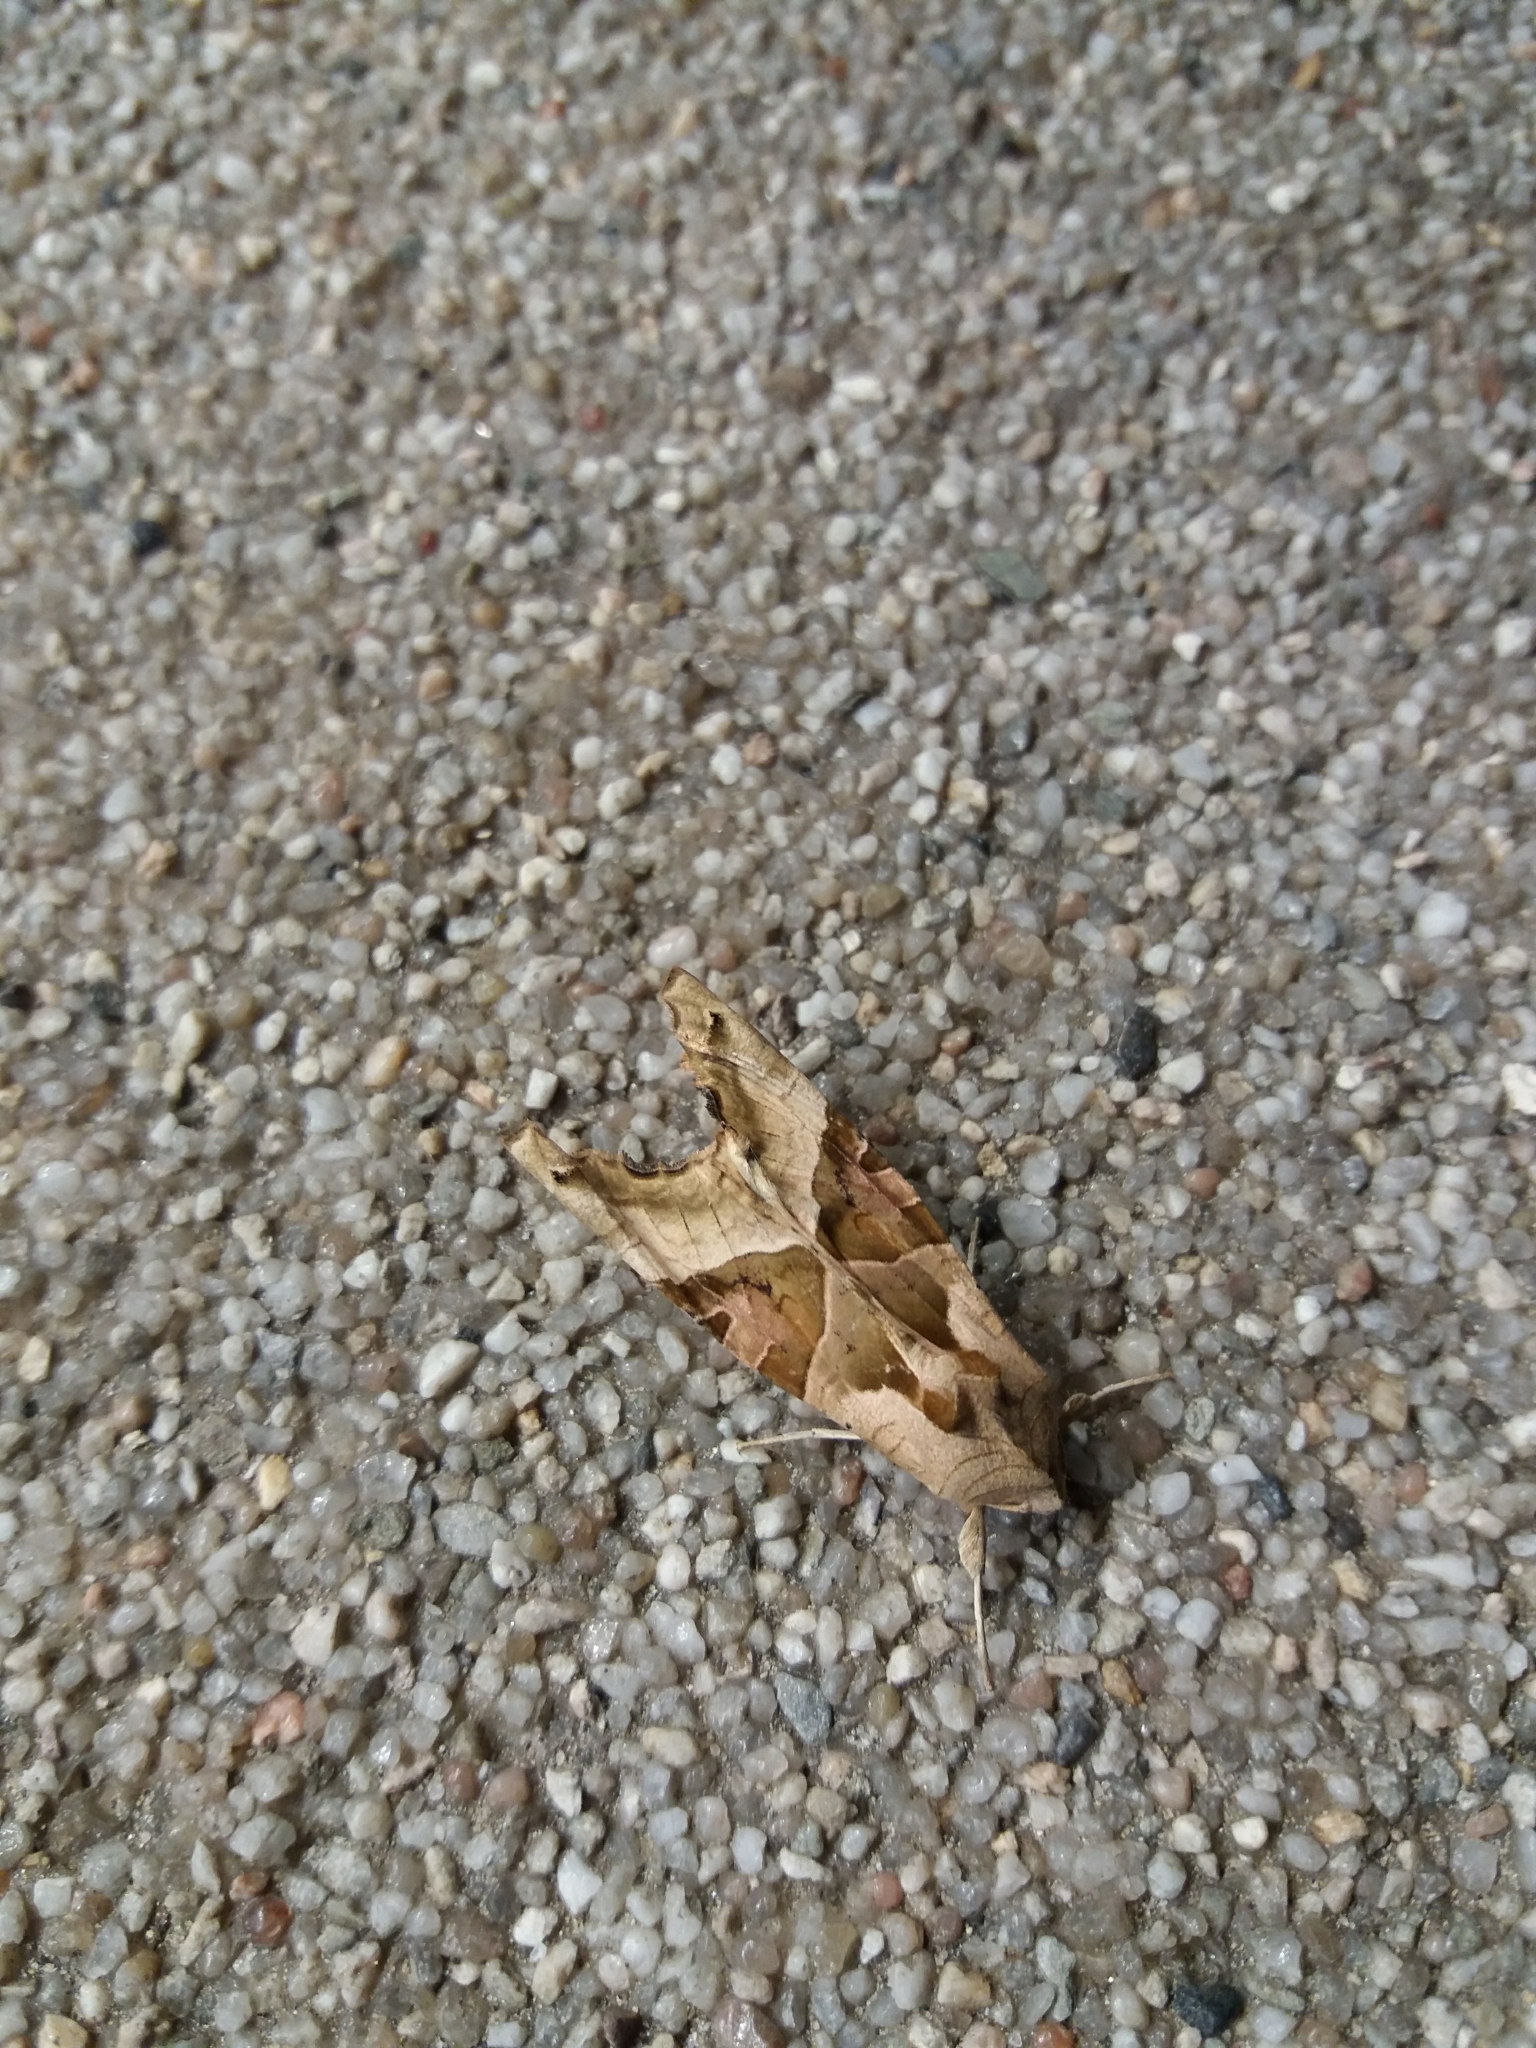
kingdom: Animalia
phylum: Arthropoda
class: Insecta
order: Lepidoptera
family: Noctuidae
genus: Phlogophora
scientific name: Phlogophora meticulosa
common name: Angle shades
